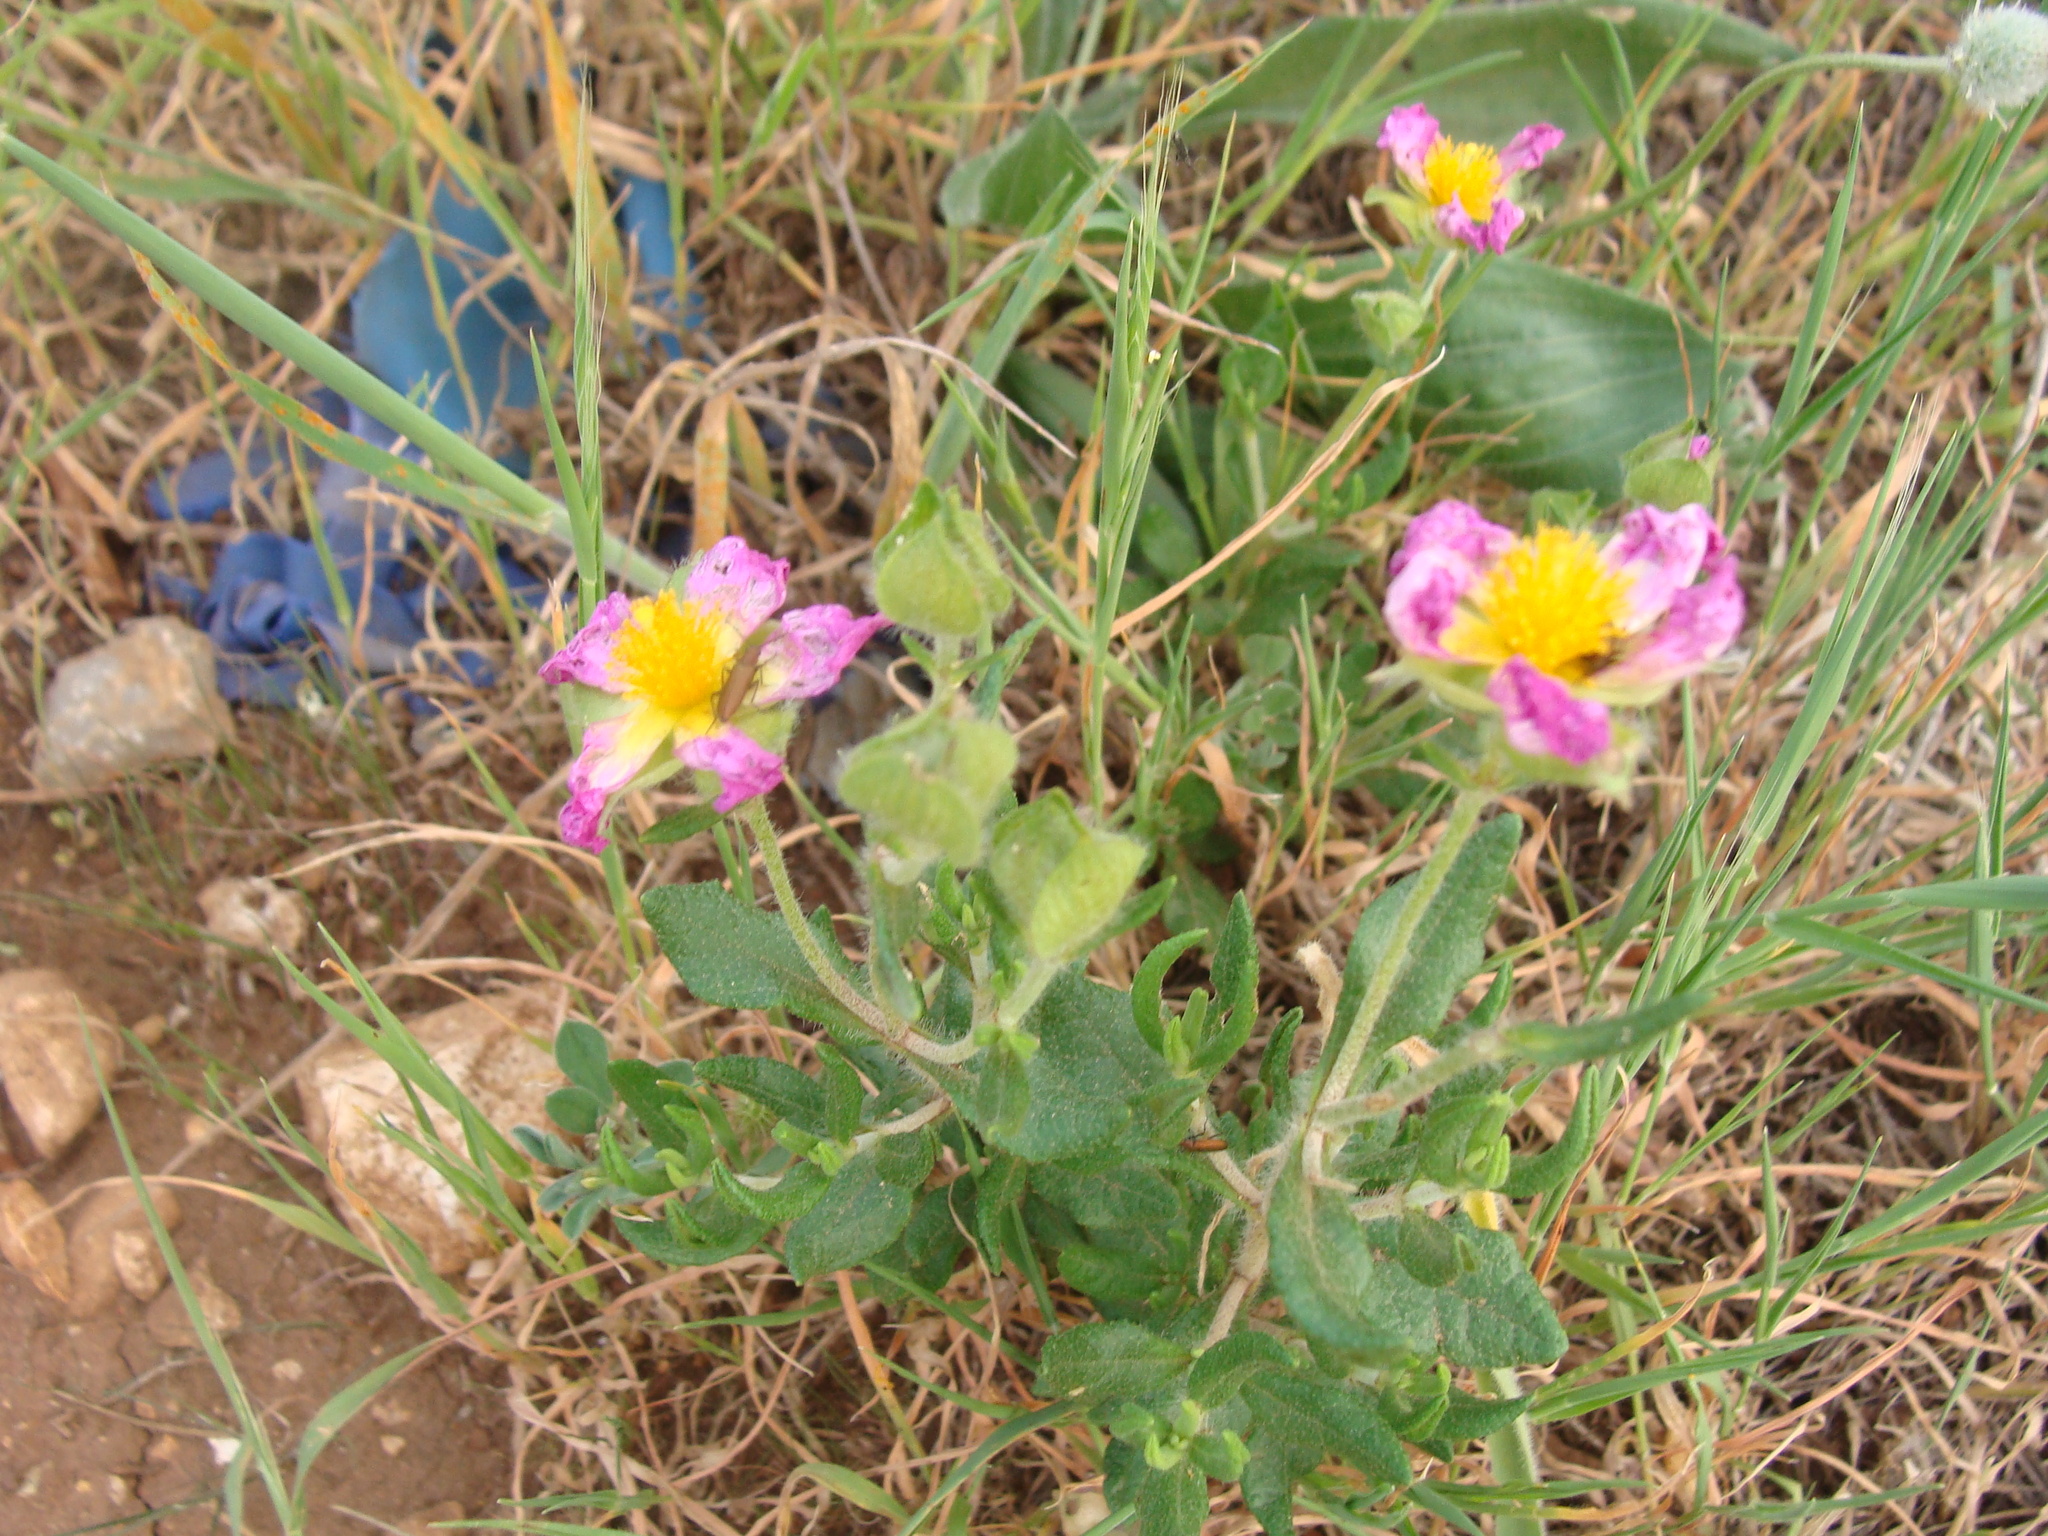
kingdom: Plantae
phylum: Tracheophyta
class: Magnoliopsida
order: Malvales
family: Cistaceae
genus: Cistus
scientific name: Cistus heterophyllus
